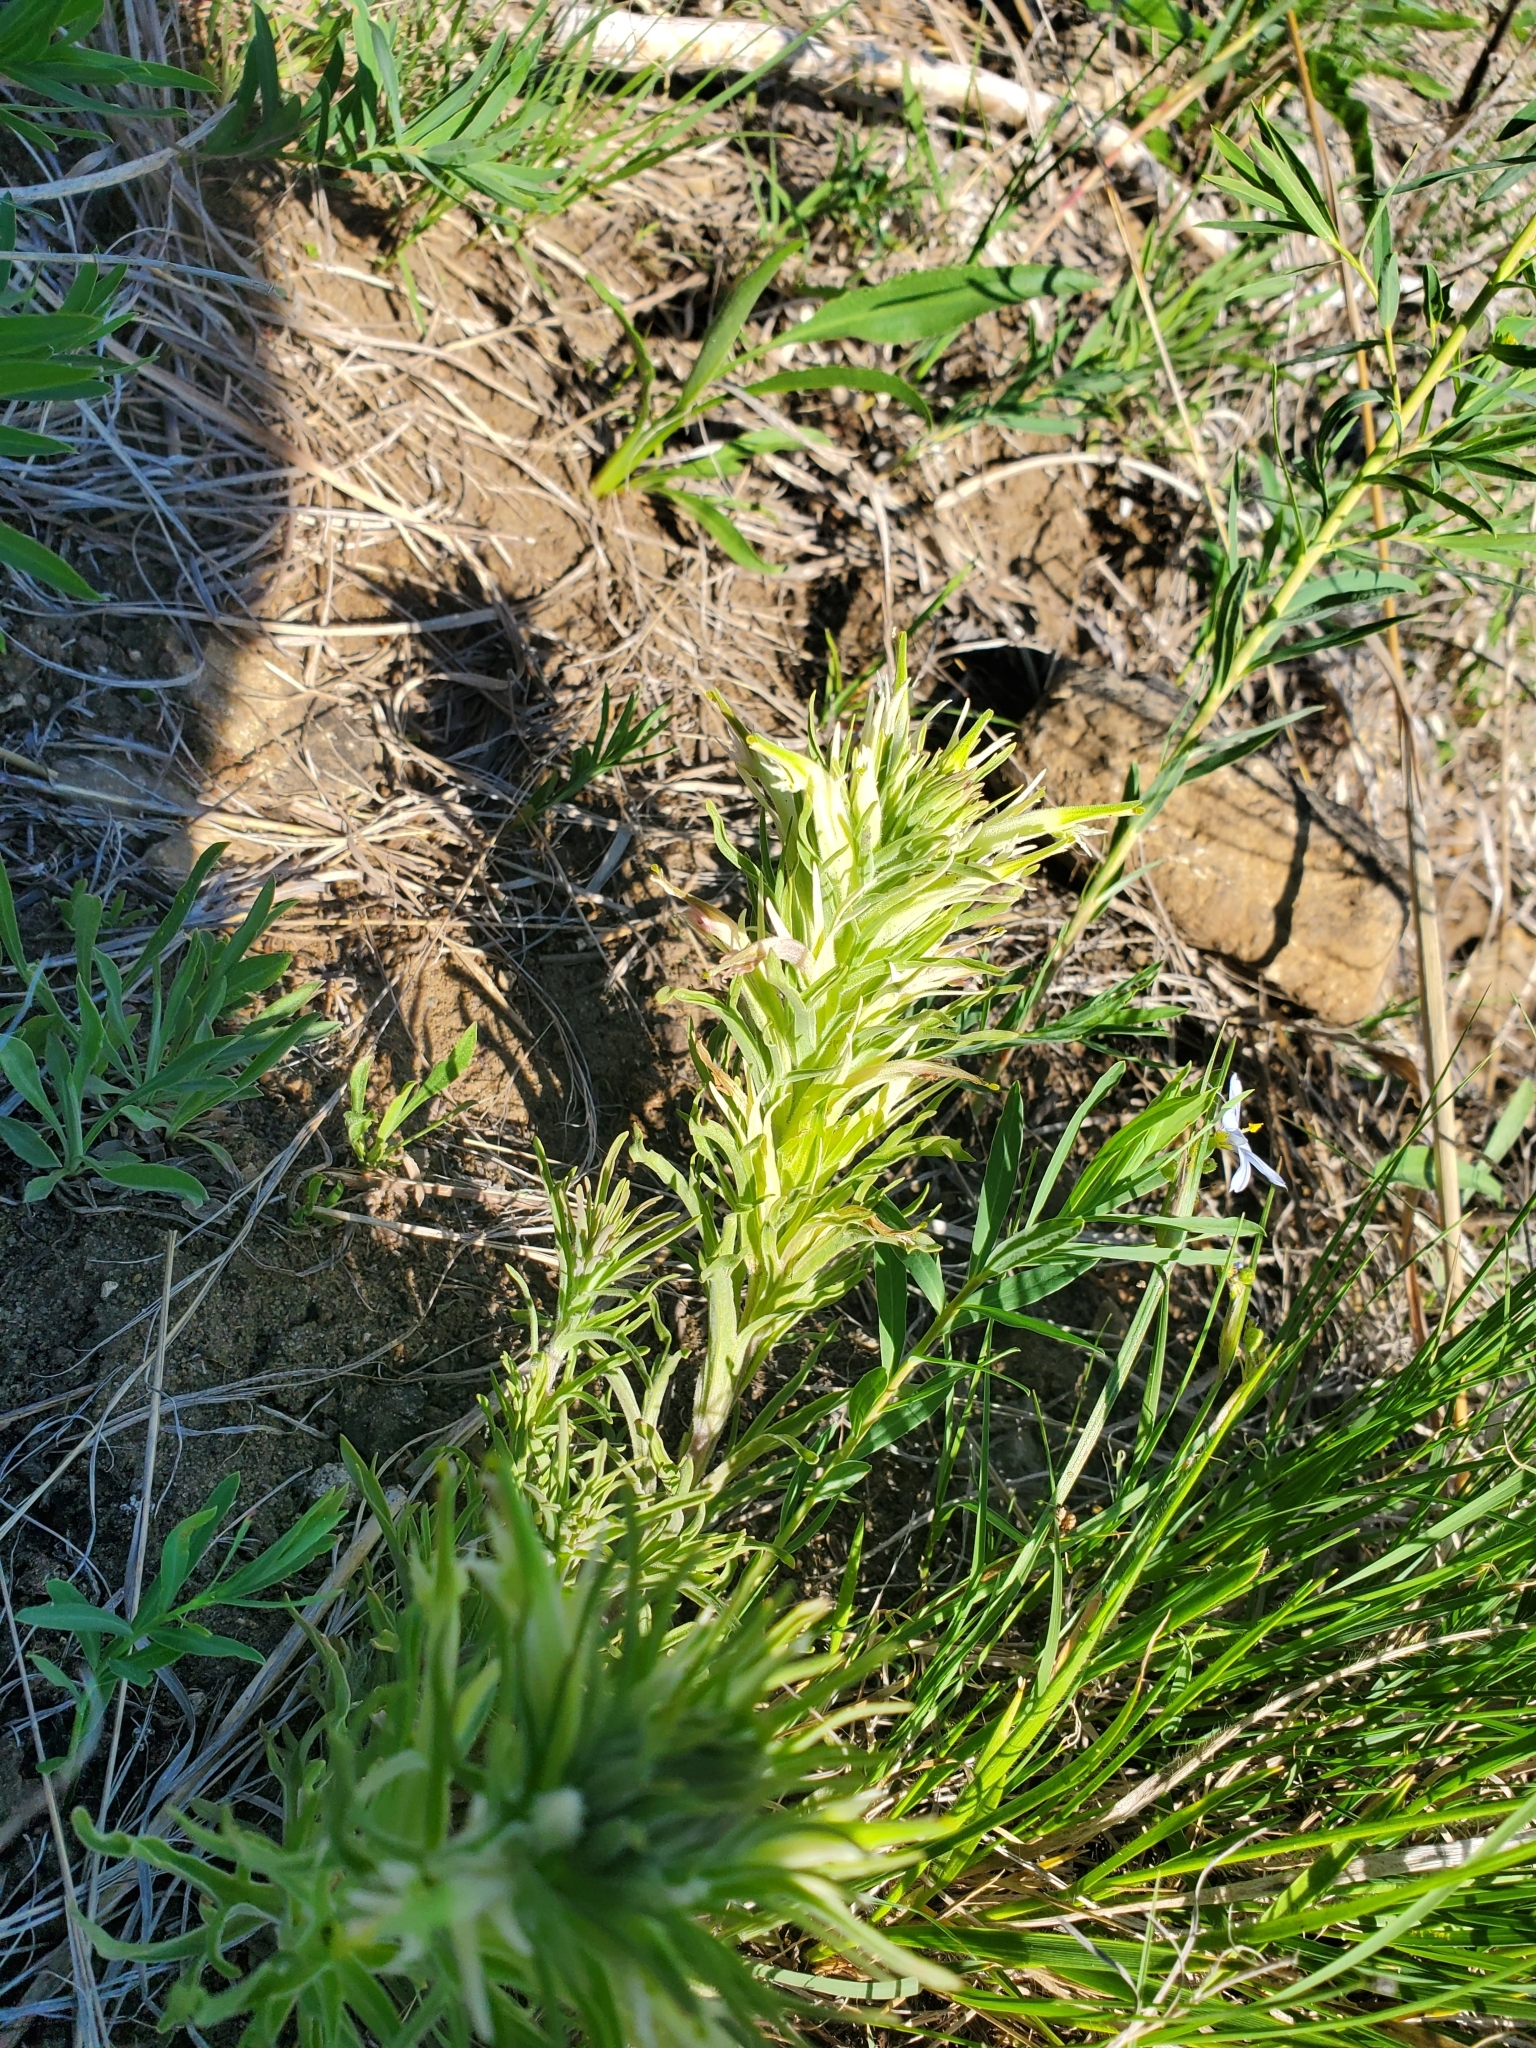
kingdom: Plantae
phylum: Tracheophyta
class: Magnoliopsida
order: Lamiales
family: Orobanchaceae
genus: Castilleja
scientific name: Castilleja sessiliflora
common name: Downy paintbrush
